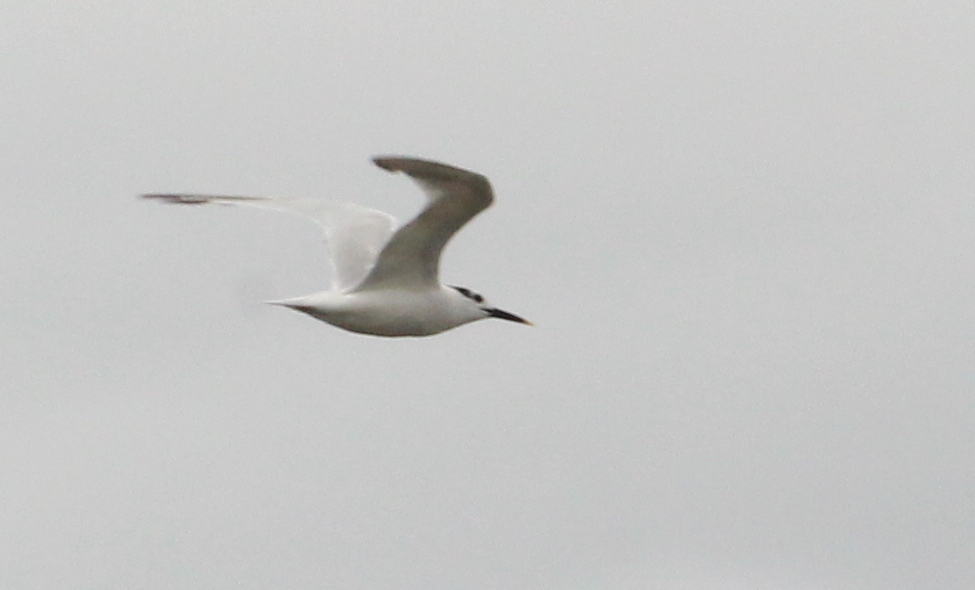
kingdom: Animalia
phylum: Chordata
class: Aves
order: Charadriiformes
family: Laridae
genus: Thalasseus
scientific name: Thalasseus acuflavidus
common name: Cabot's tern
